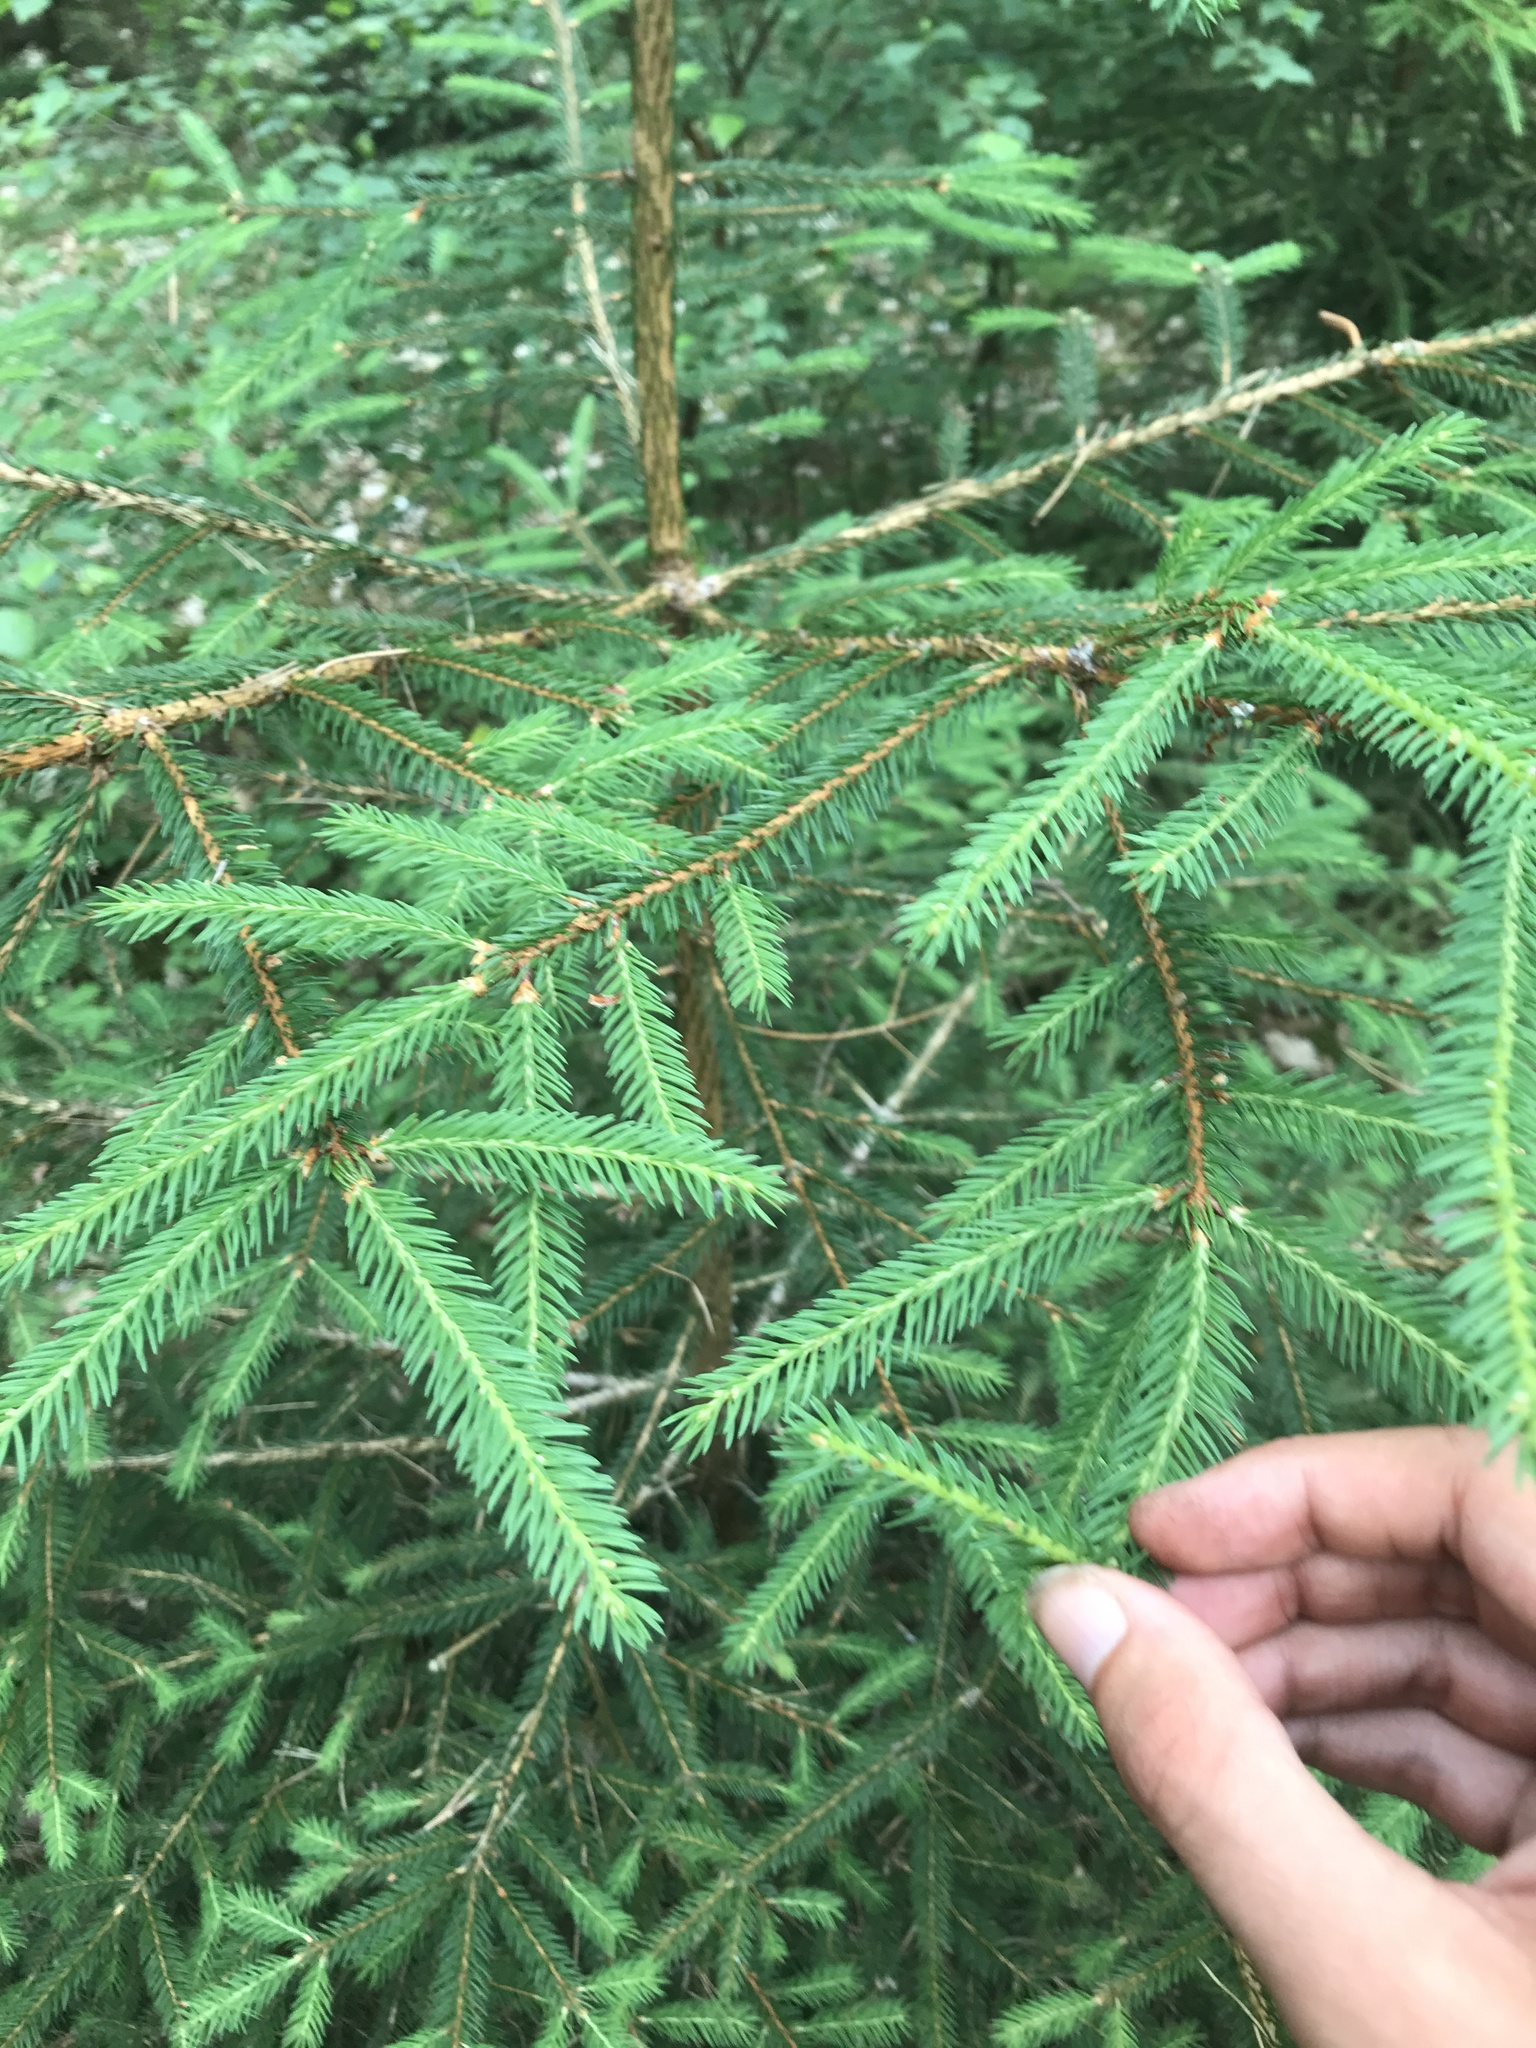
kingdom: Plantae
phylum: Tracheophyta
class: Pinopsida
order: Pinales
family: Pinaceae
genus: Picea
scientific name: Picea abies
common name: Norway spruce
